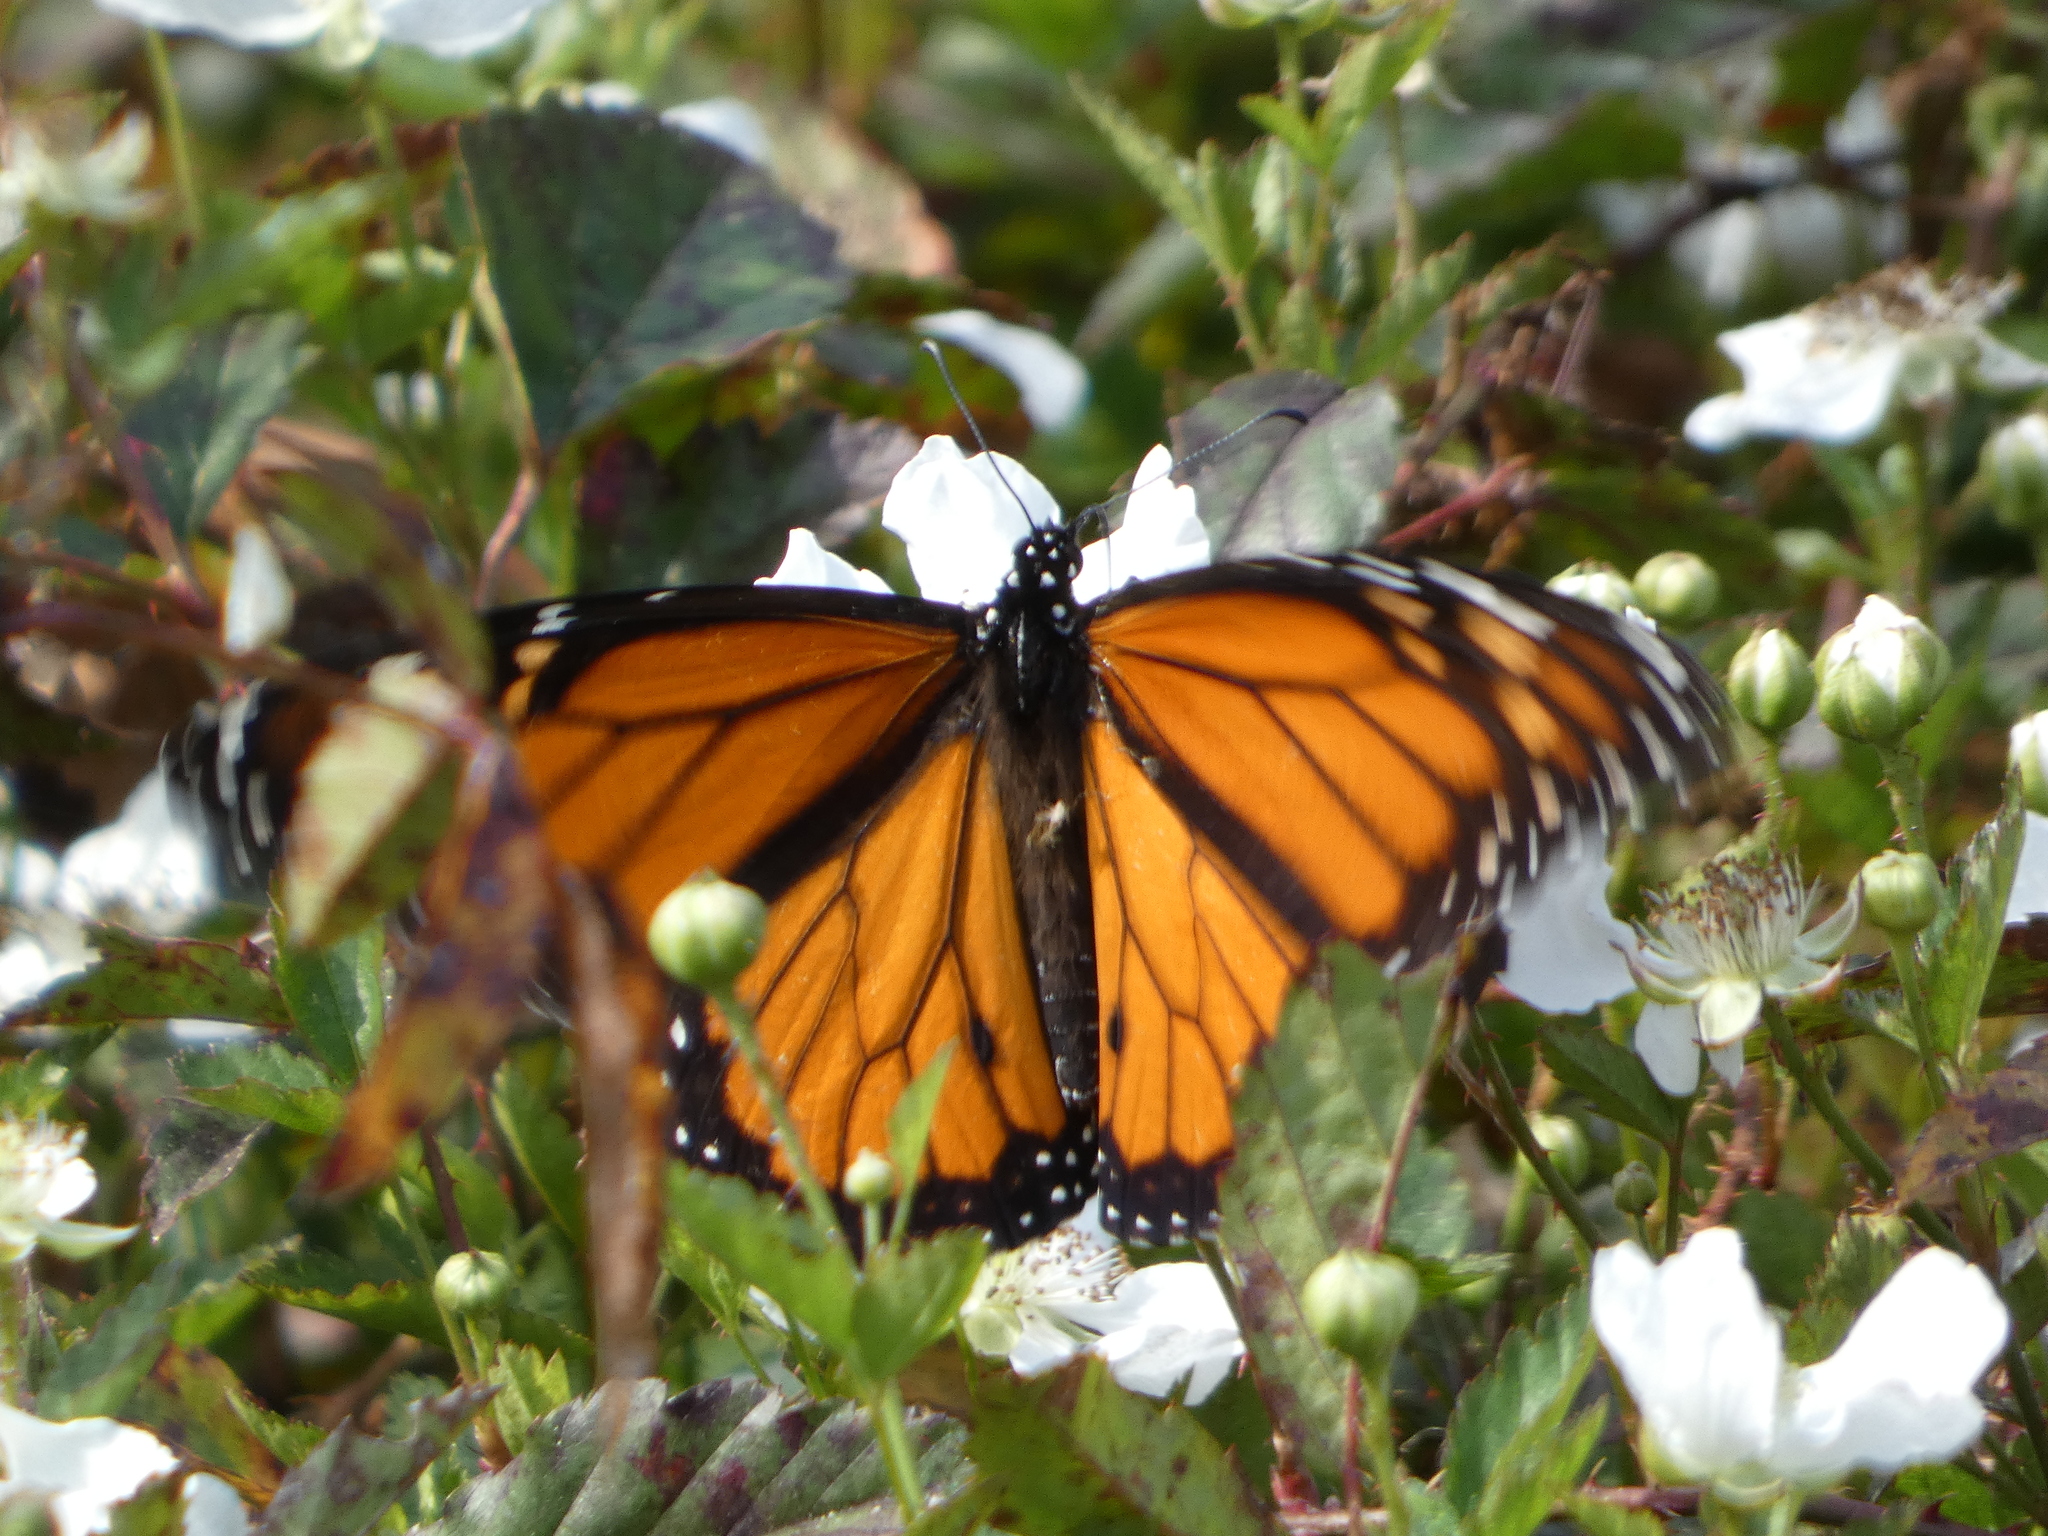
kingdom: Animalia
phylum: Arthropoda
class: Insecta
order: Lepidoptera
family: Nymphalidae
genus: Danaus
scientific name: Danaus plexippus
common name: Monarch
